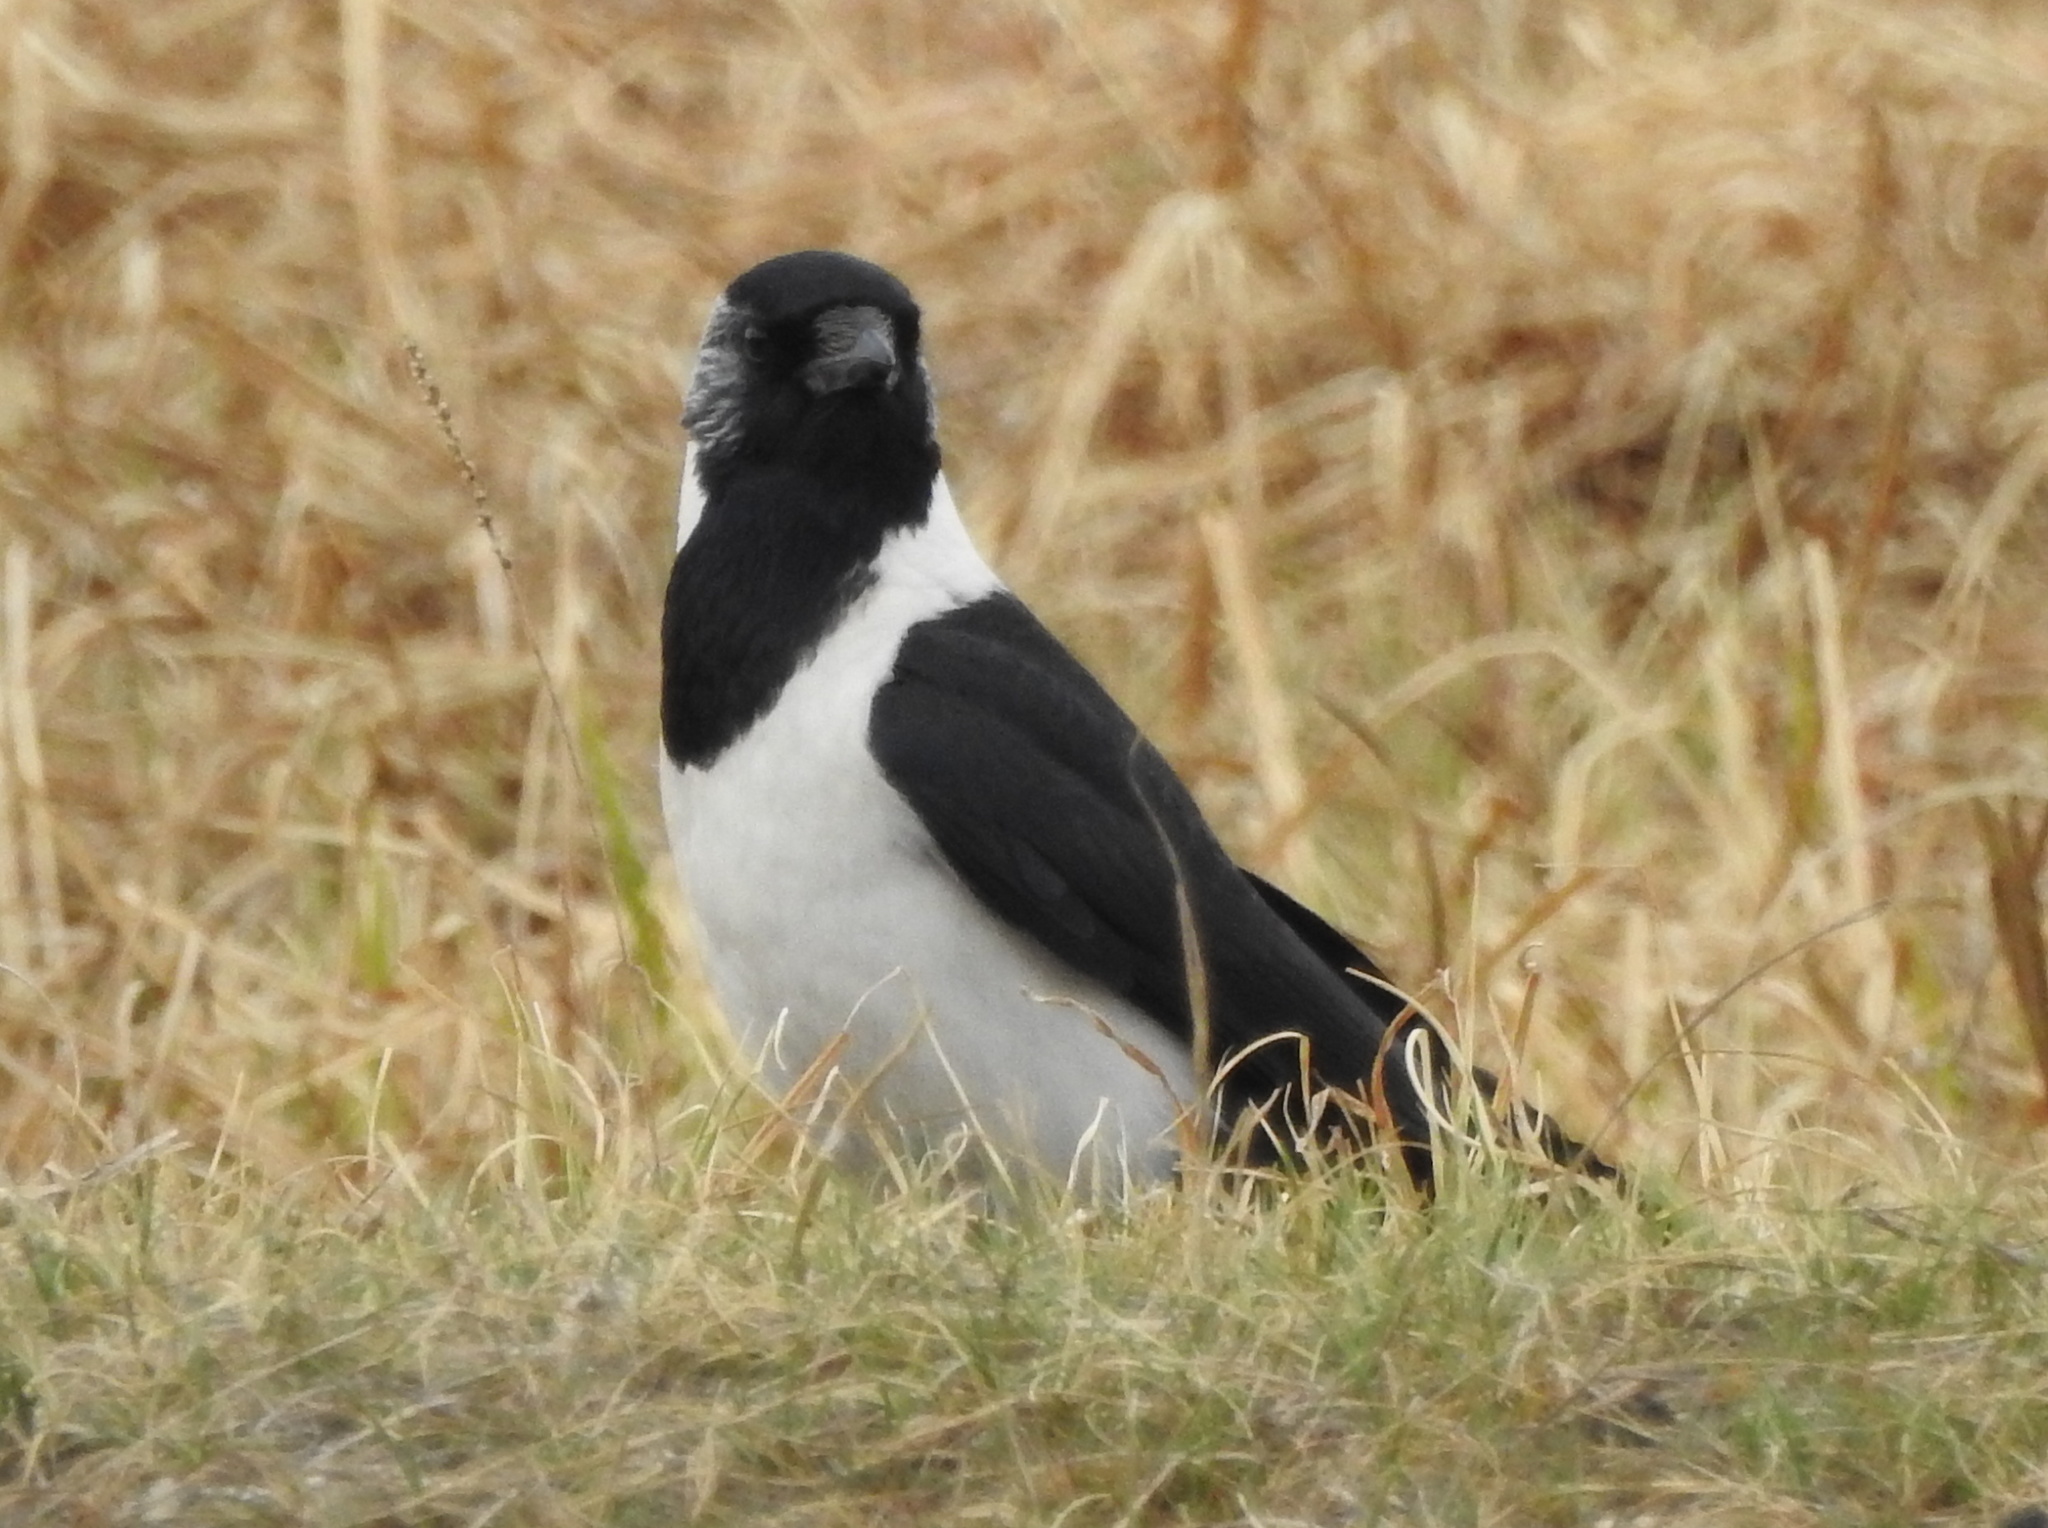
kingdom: Animalia
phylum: Chordata
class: Aves
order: Passeriformes
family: Corvidae
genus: Coloeus
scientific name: Coloeus dauuricus
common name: Daurian jackdaw
